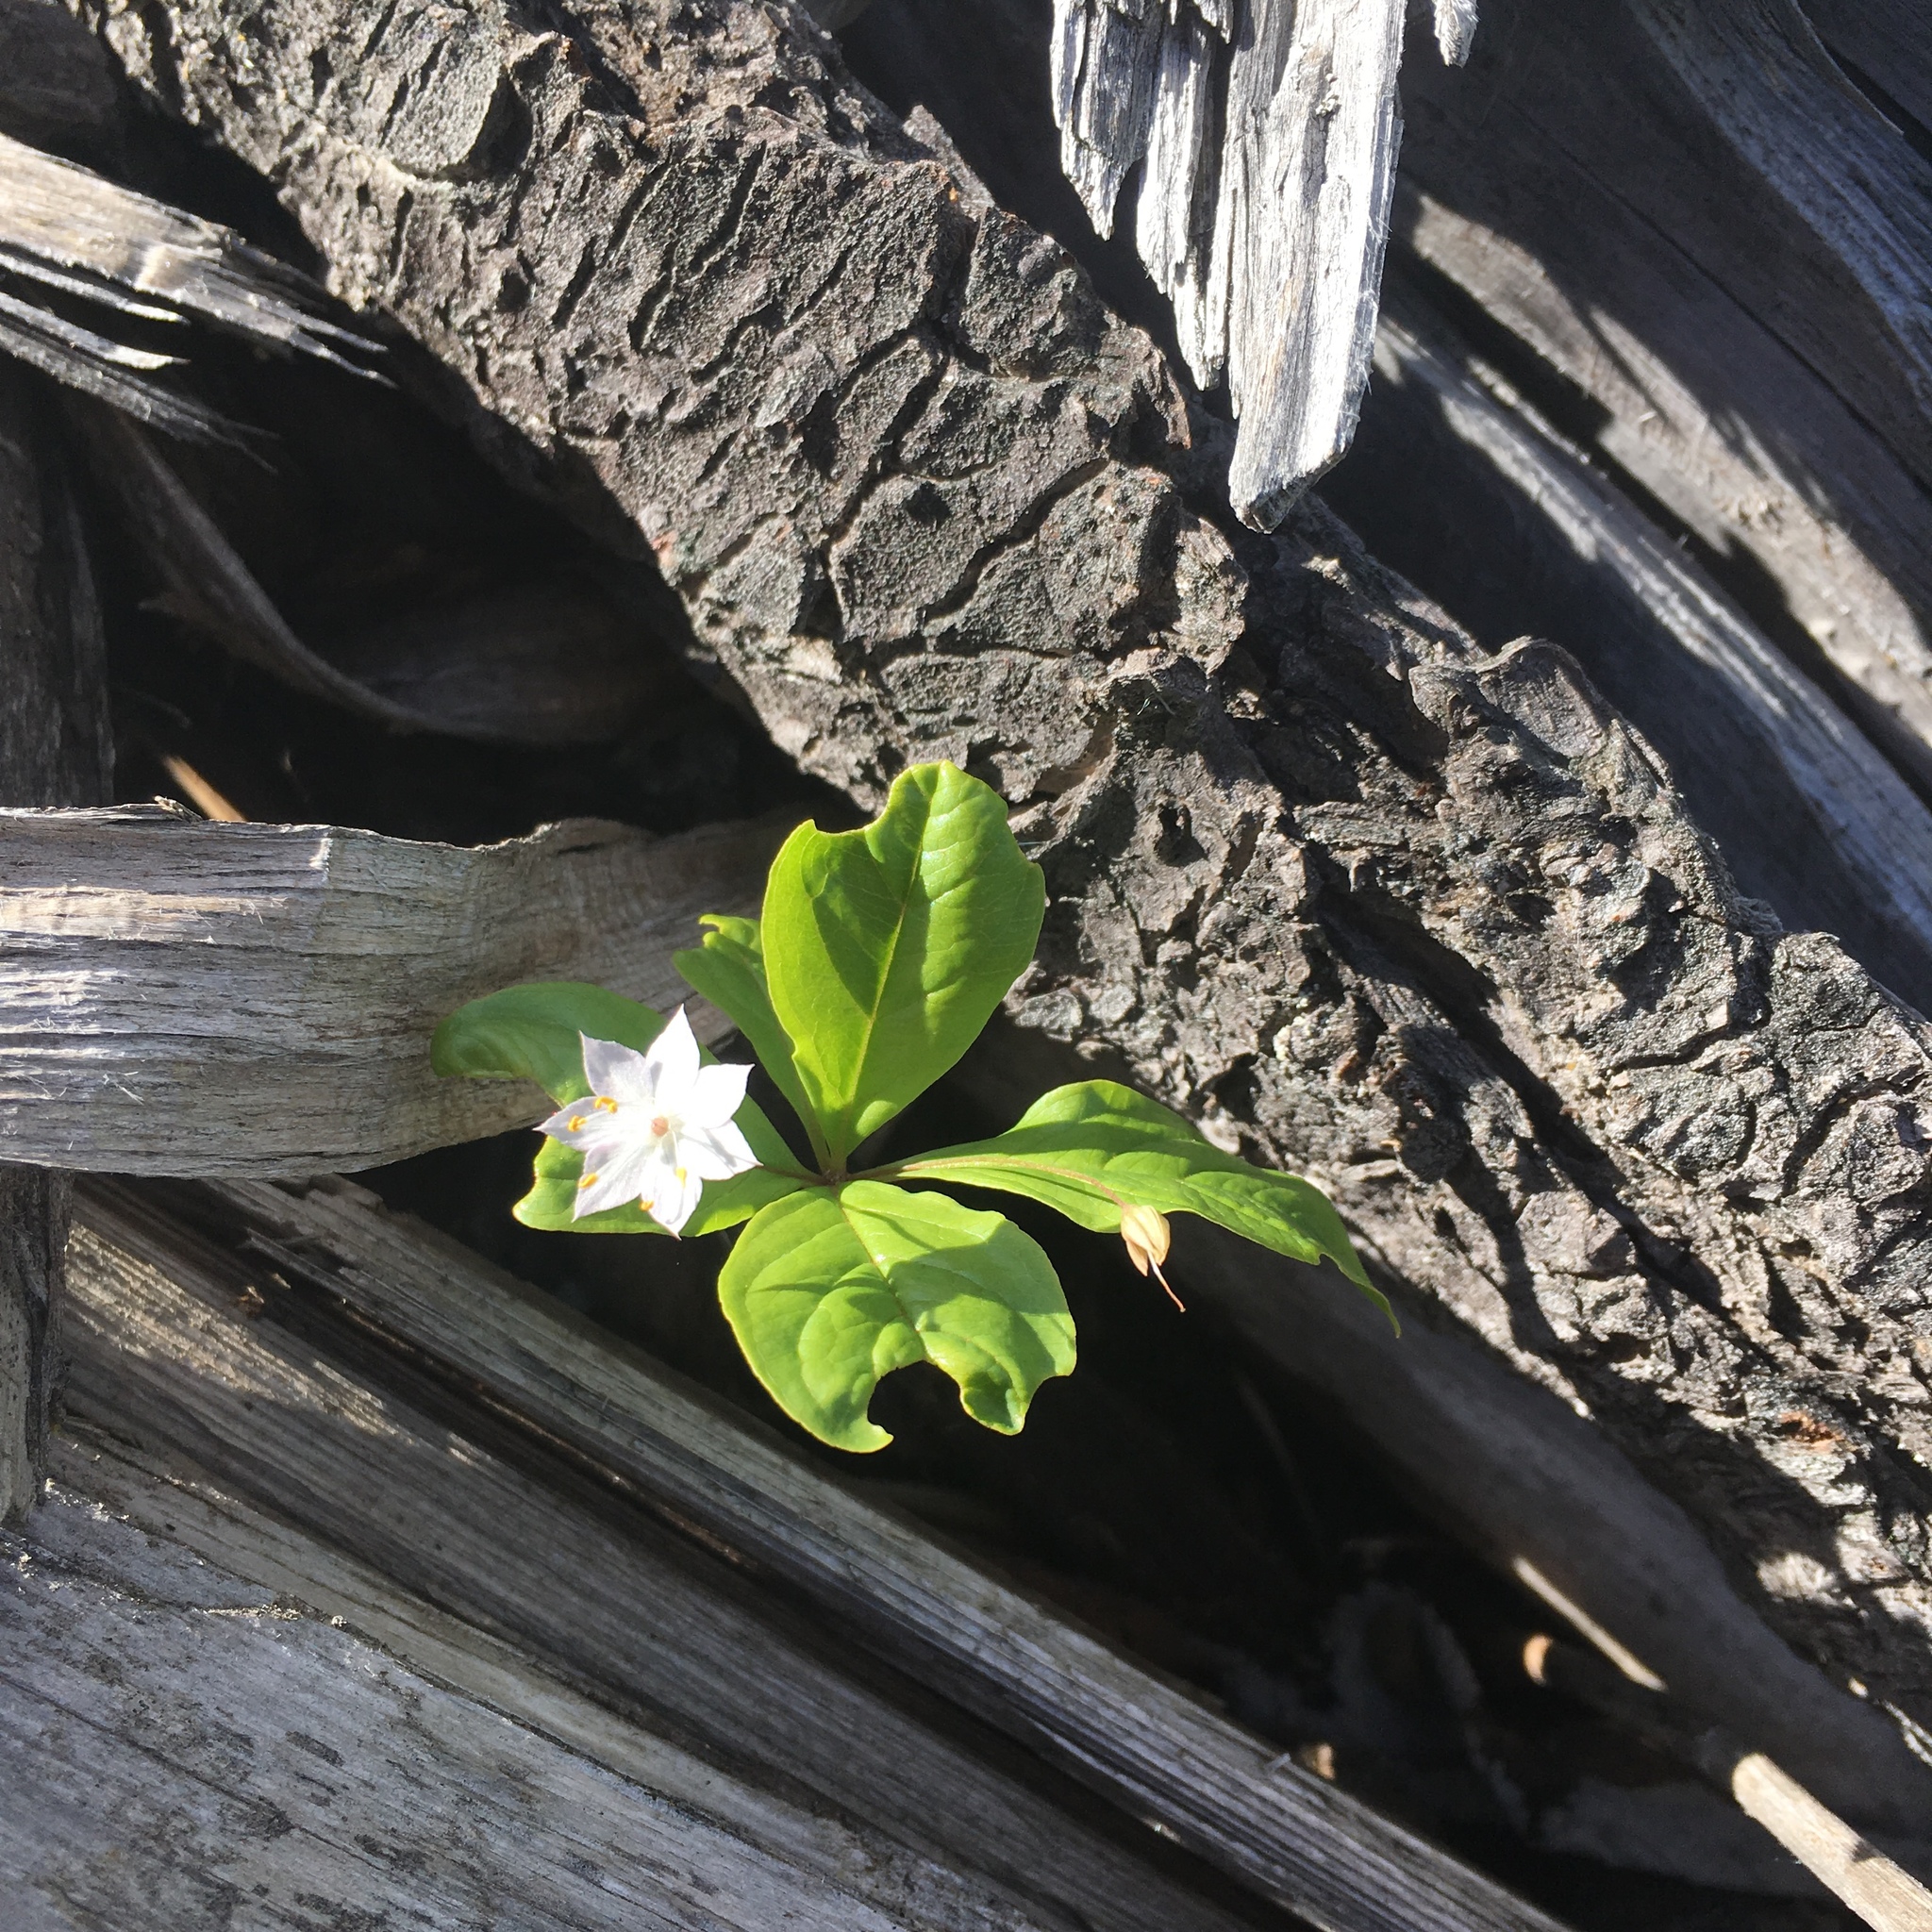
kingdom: Plantae
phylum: Tracheophyta
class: Magnoliopsida
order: Ericales
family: Primulaceae
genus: Lysimachia
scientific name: Lysimachia latifolia
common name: Pacific starflower
